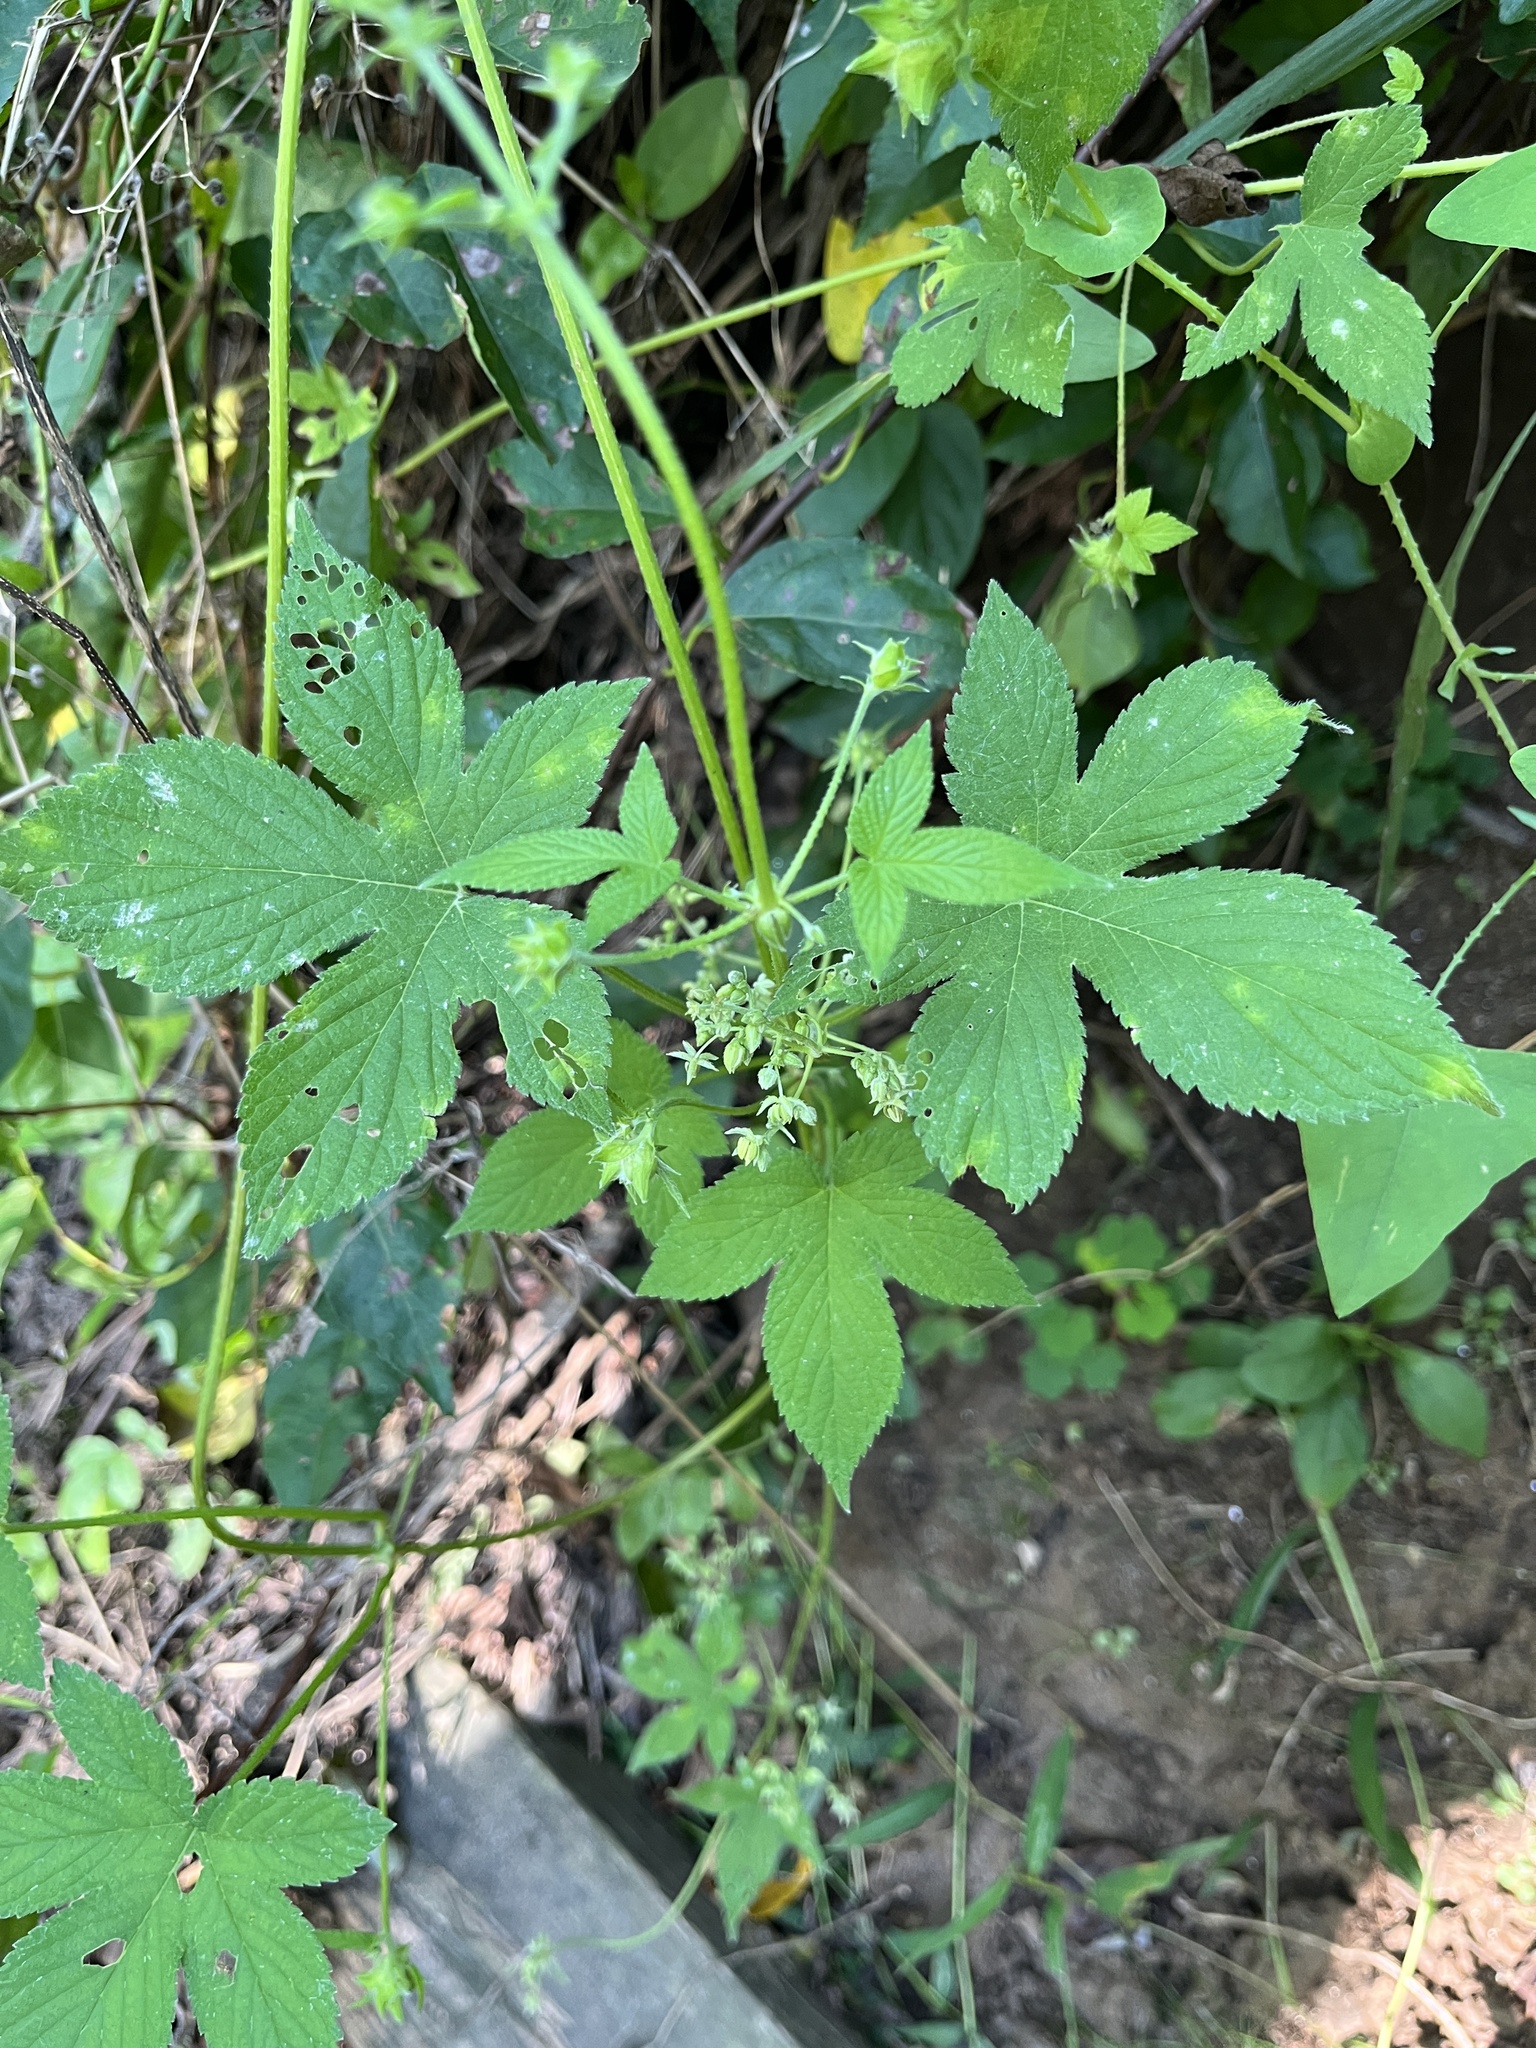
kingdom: Plantae
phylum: Tracheophyta
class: Magnoliopsida
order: Rosales
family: Cannabaceae
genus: Humulus
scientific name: Humulus scandens
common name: Japanese hop
